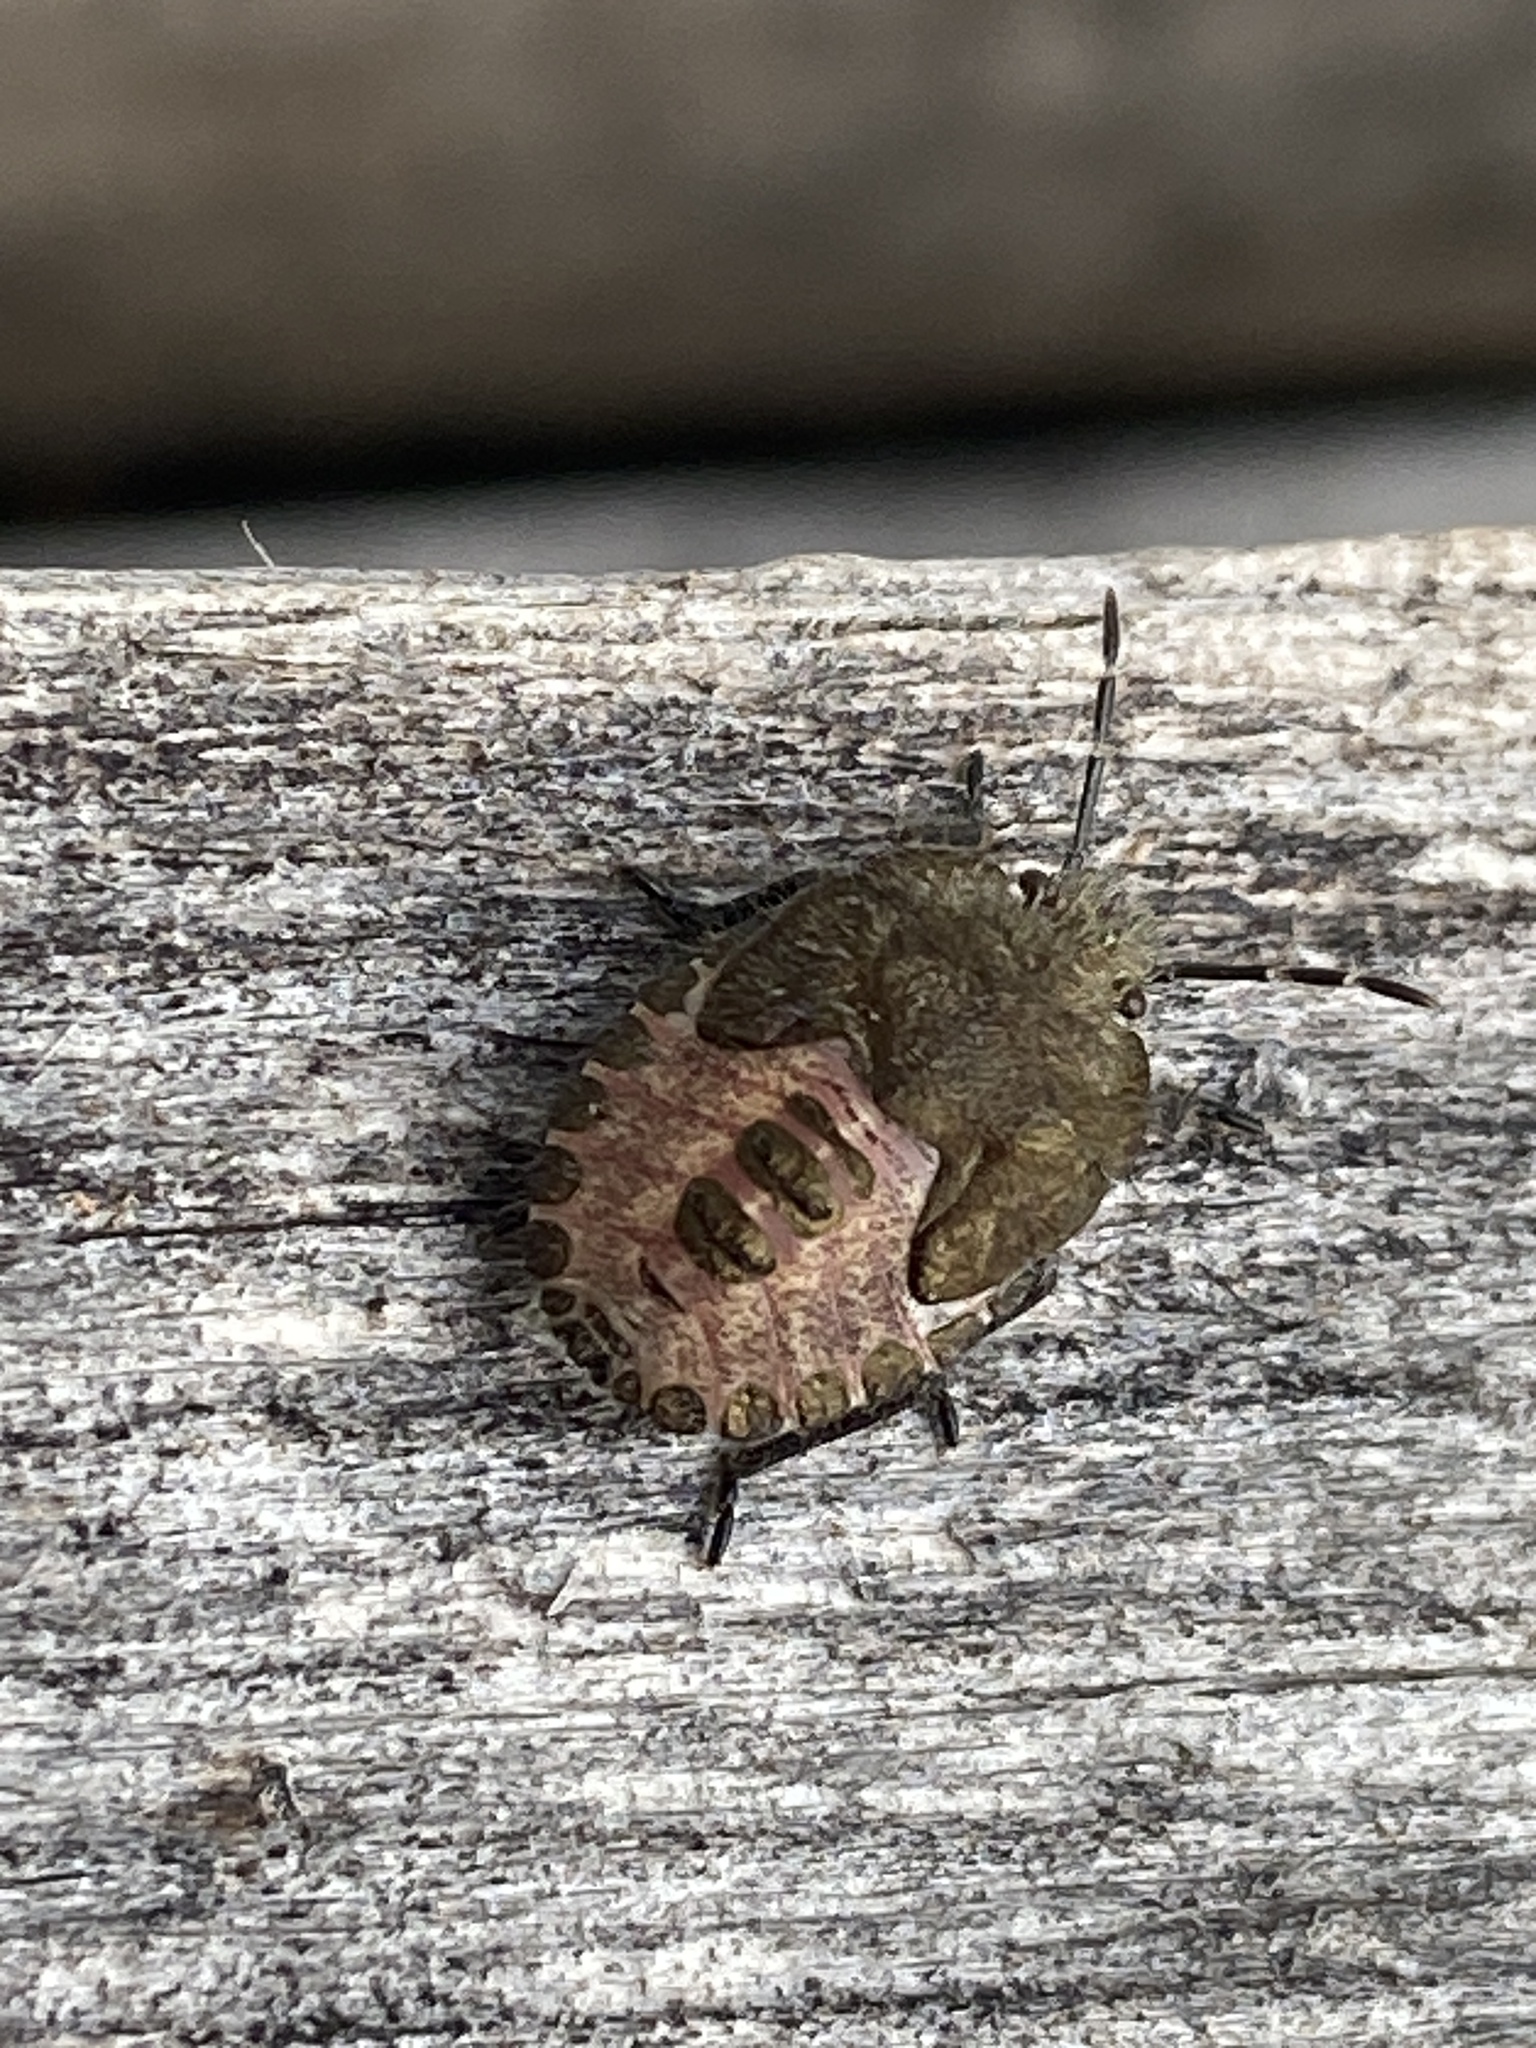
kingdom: Animalia
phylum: Arthropoda
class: Insecta
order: Hemiptera
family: Pentatomidae
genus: Dolycoris
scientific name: Dolycoris baccarum
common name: Sloe bug
